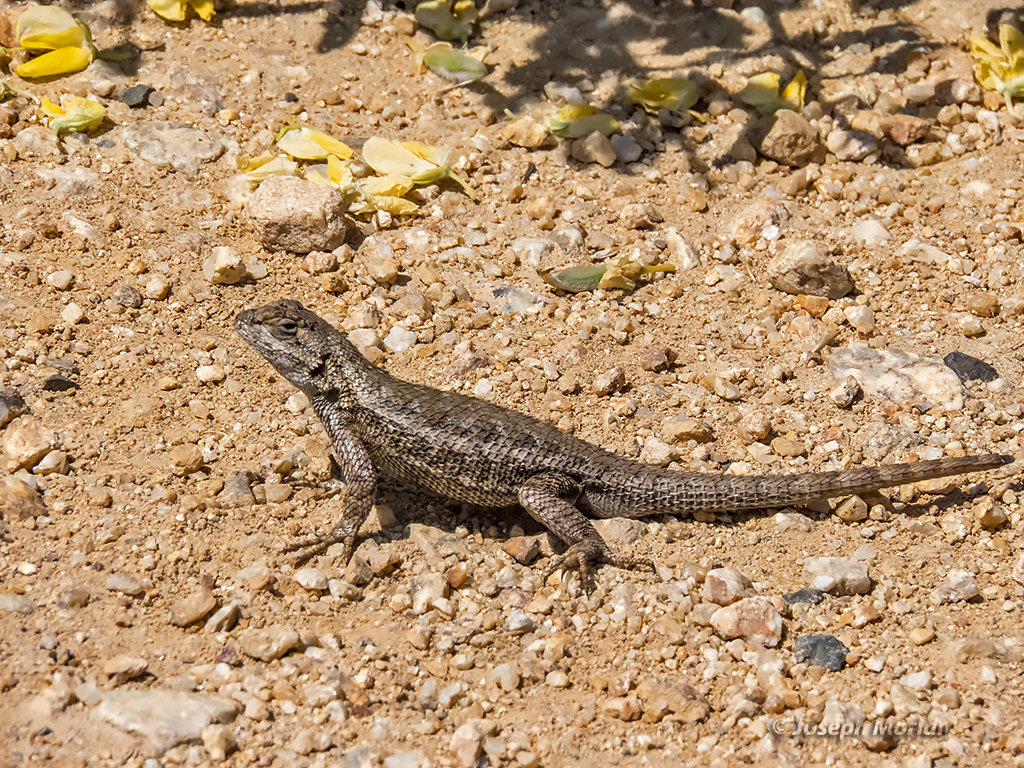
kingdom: Animalia
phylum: Chordata
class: Squamata
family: Phrynosomatidae
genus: Sceloporus
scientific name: Sceloporus occidentalis
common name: Western fence lizard
